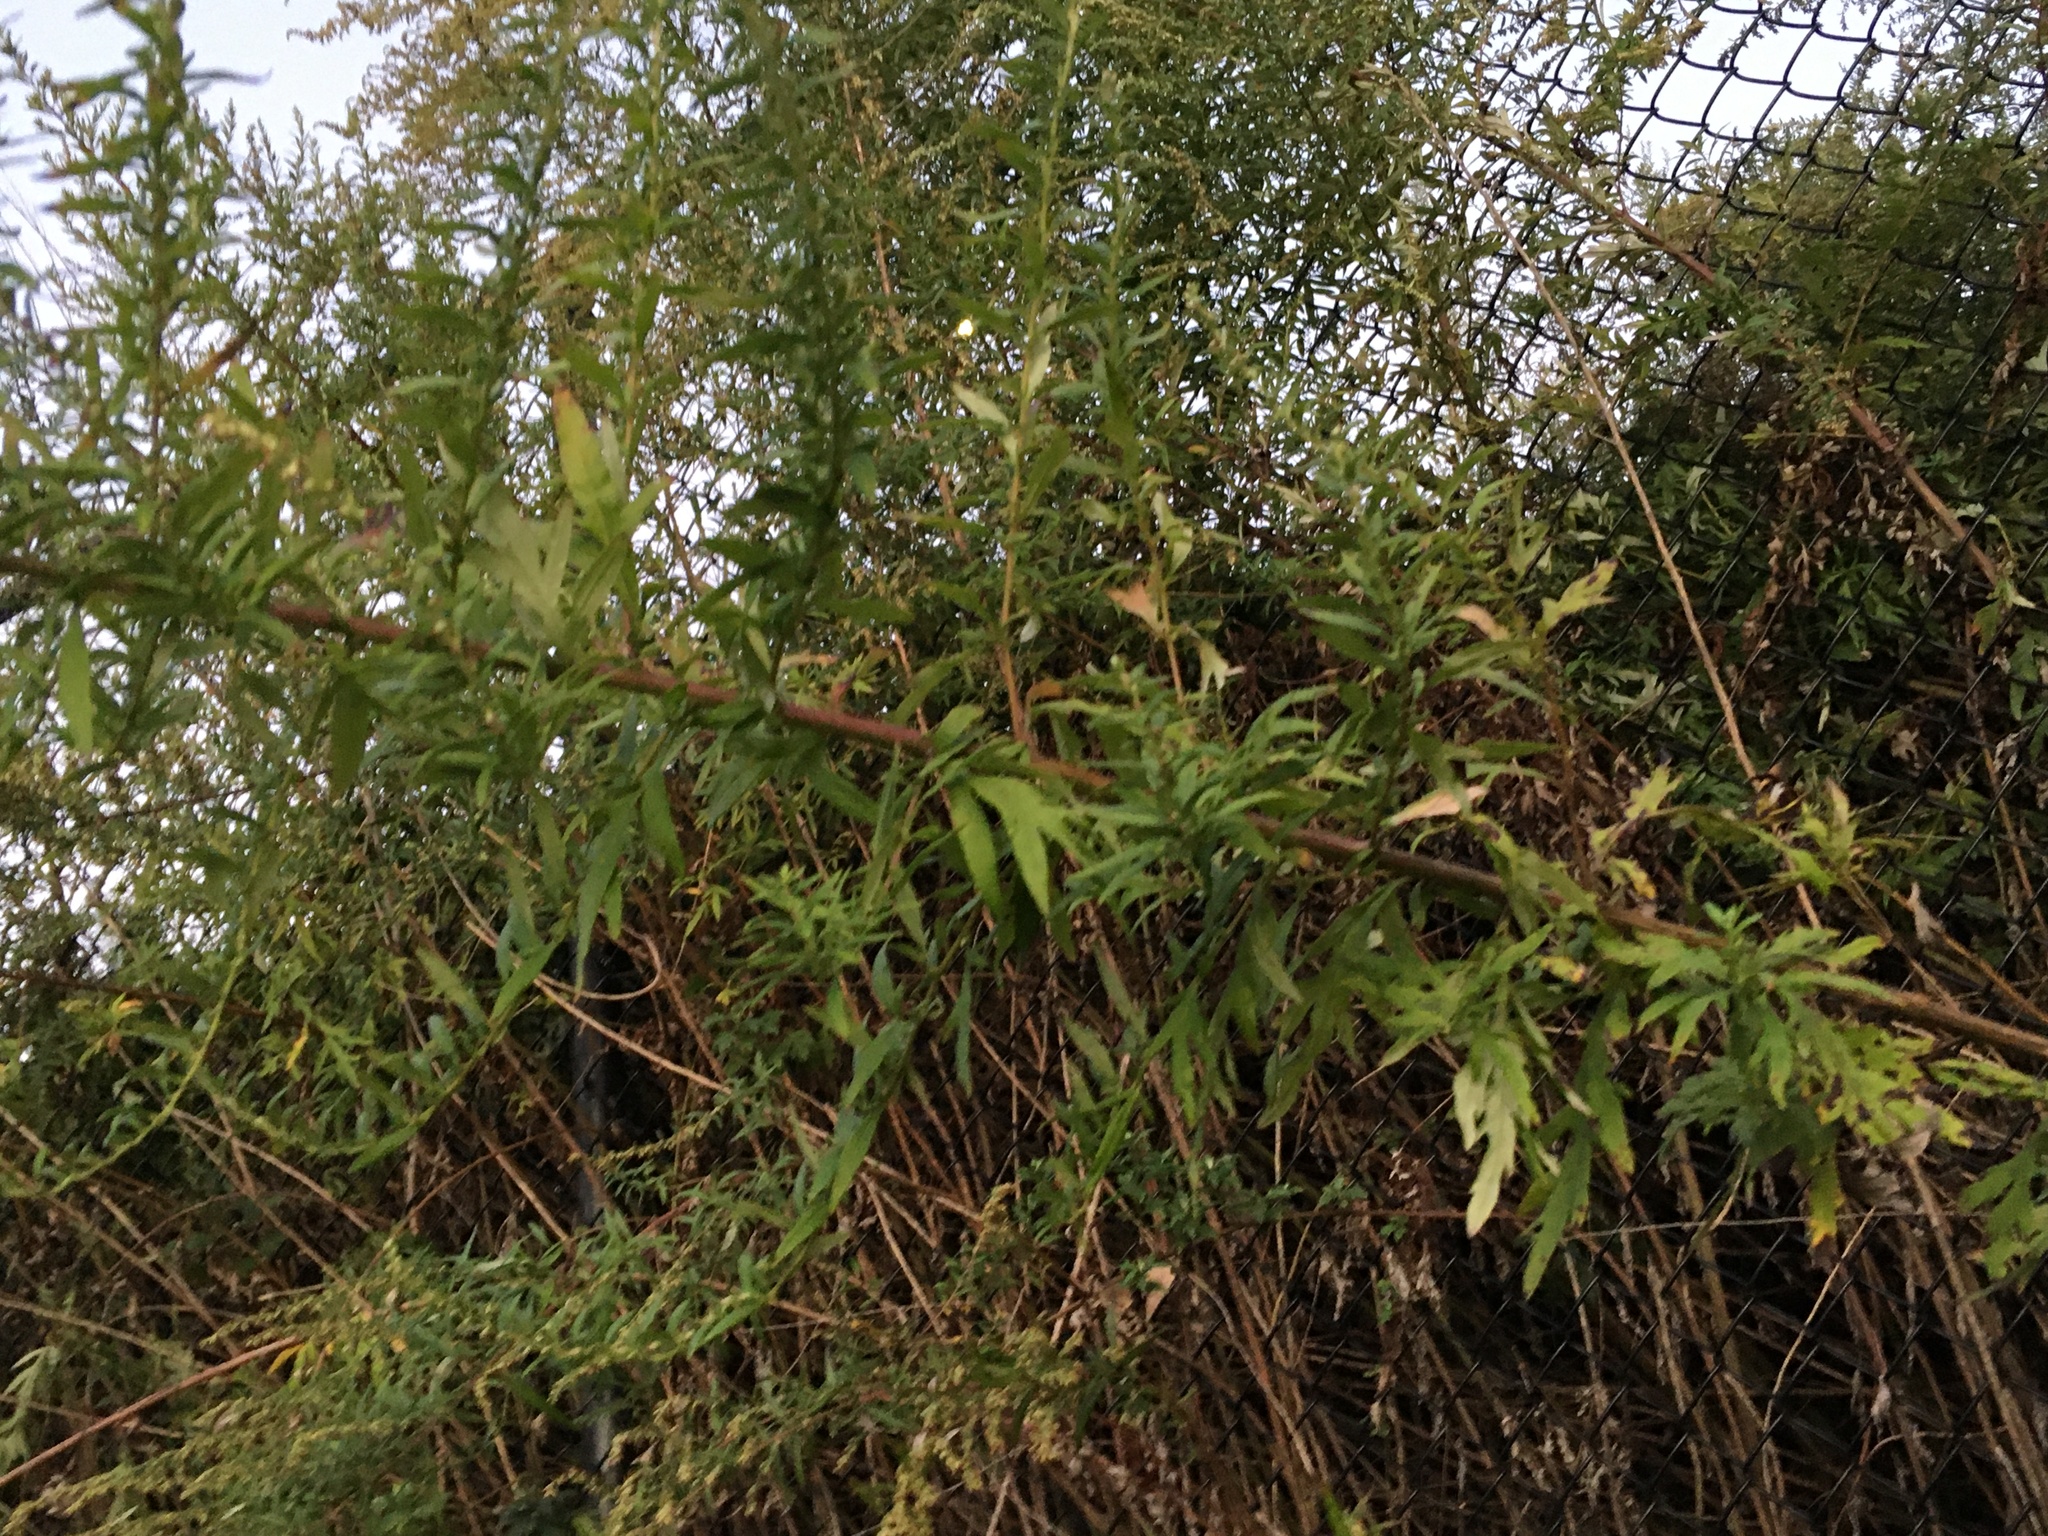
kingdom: Plantae
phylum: Tracheophyta
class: Magnoliopsida
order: Asterales
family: Asteraceae
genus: Artemisia
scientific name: Artemisia vulgaris
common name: Mugwort
